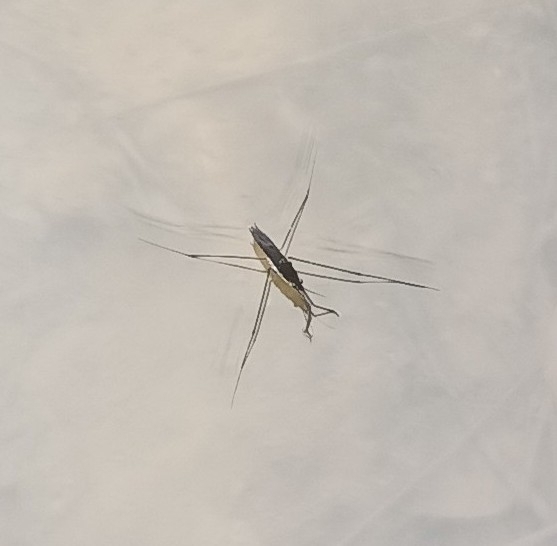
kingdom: Animalia
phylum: Arthropoda
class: Insecta
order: Hemiptera
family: Gerridae
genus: Aquarius
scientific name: Aquarius paludum
